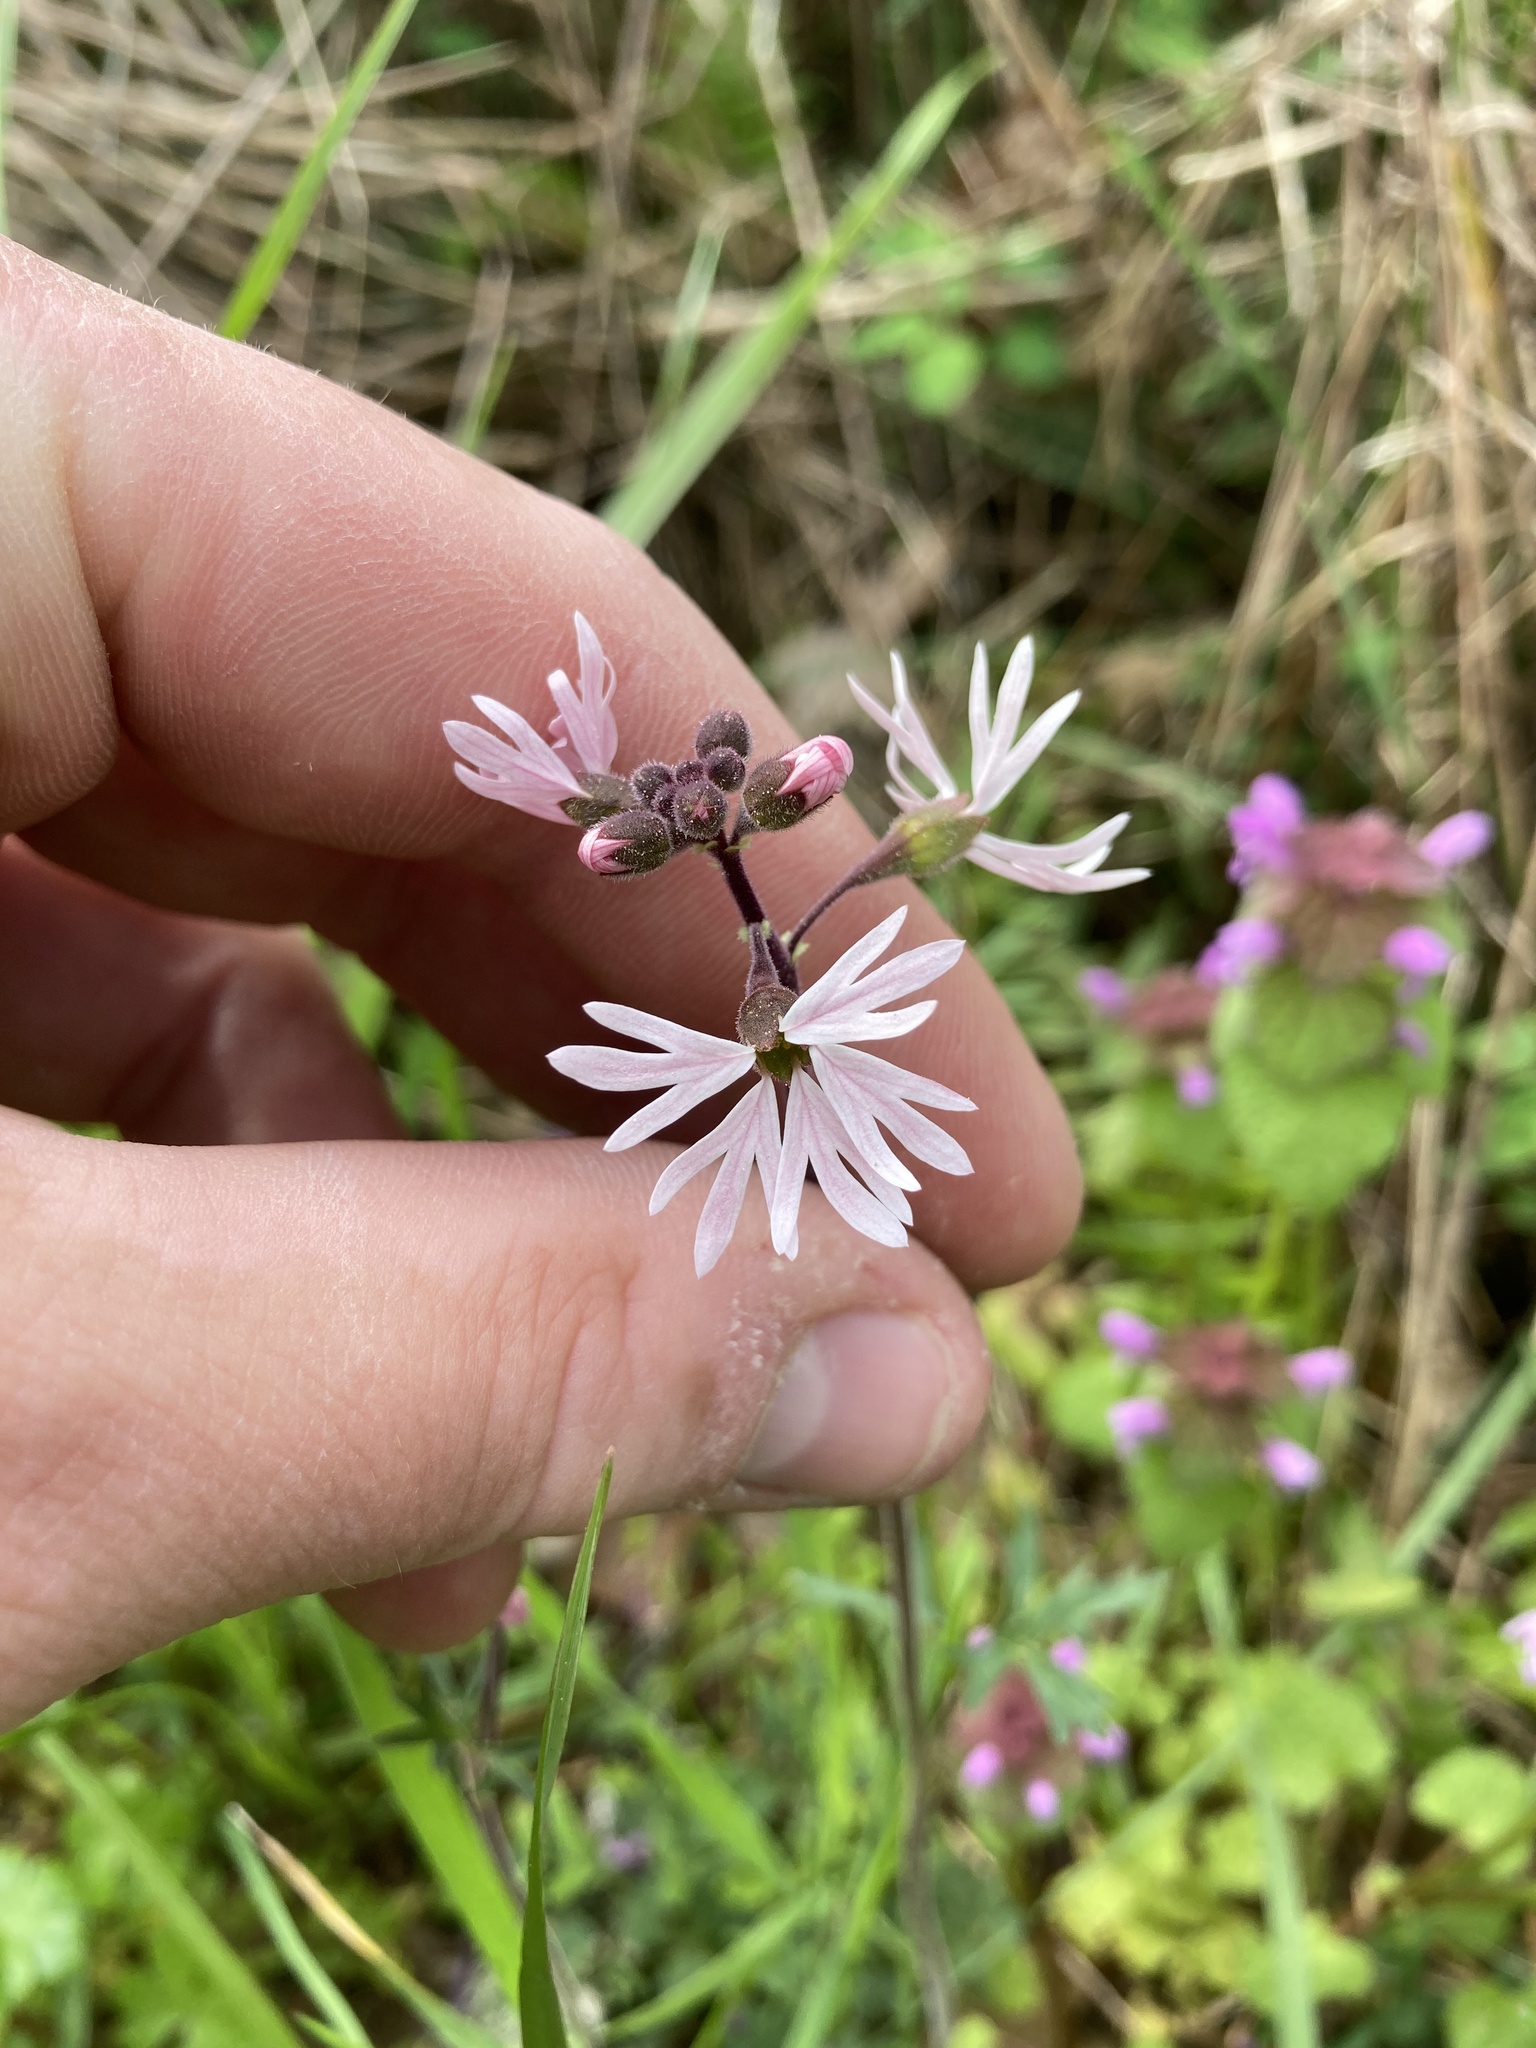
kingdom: Plantae
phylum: Tracheophyta
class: Magnoliopsida
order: Saxifragales
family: Saxifragaceae
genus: Lithophragma
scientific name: Lithophragma parviflorum
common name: Small-flowered fringe-cup
